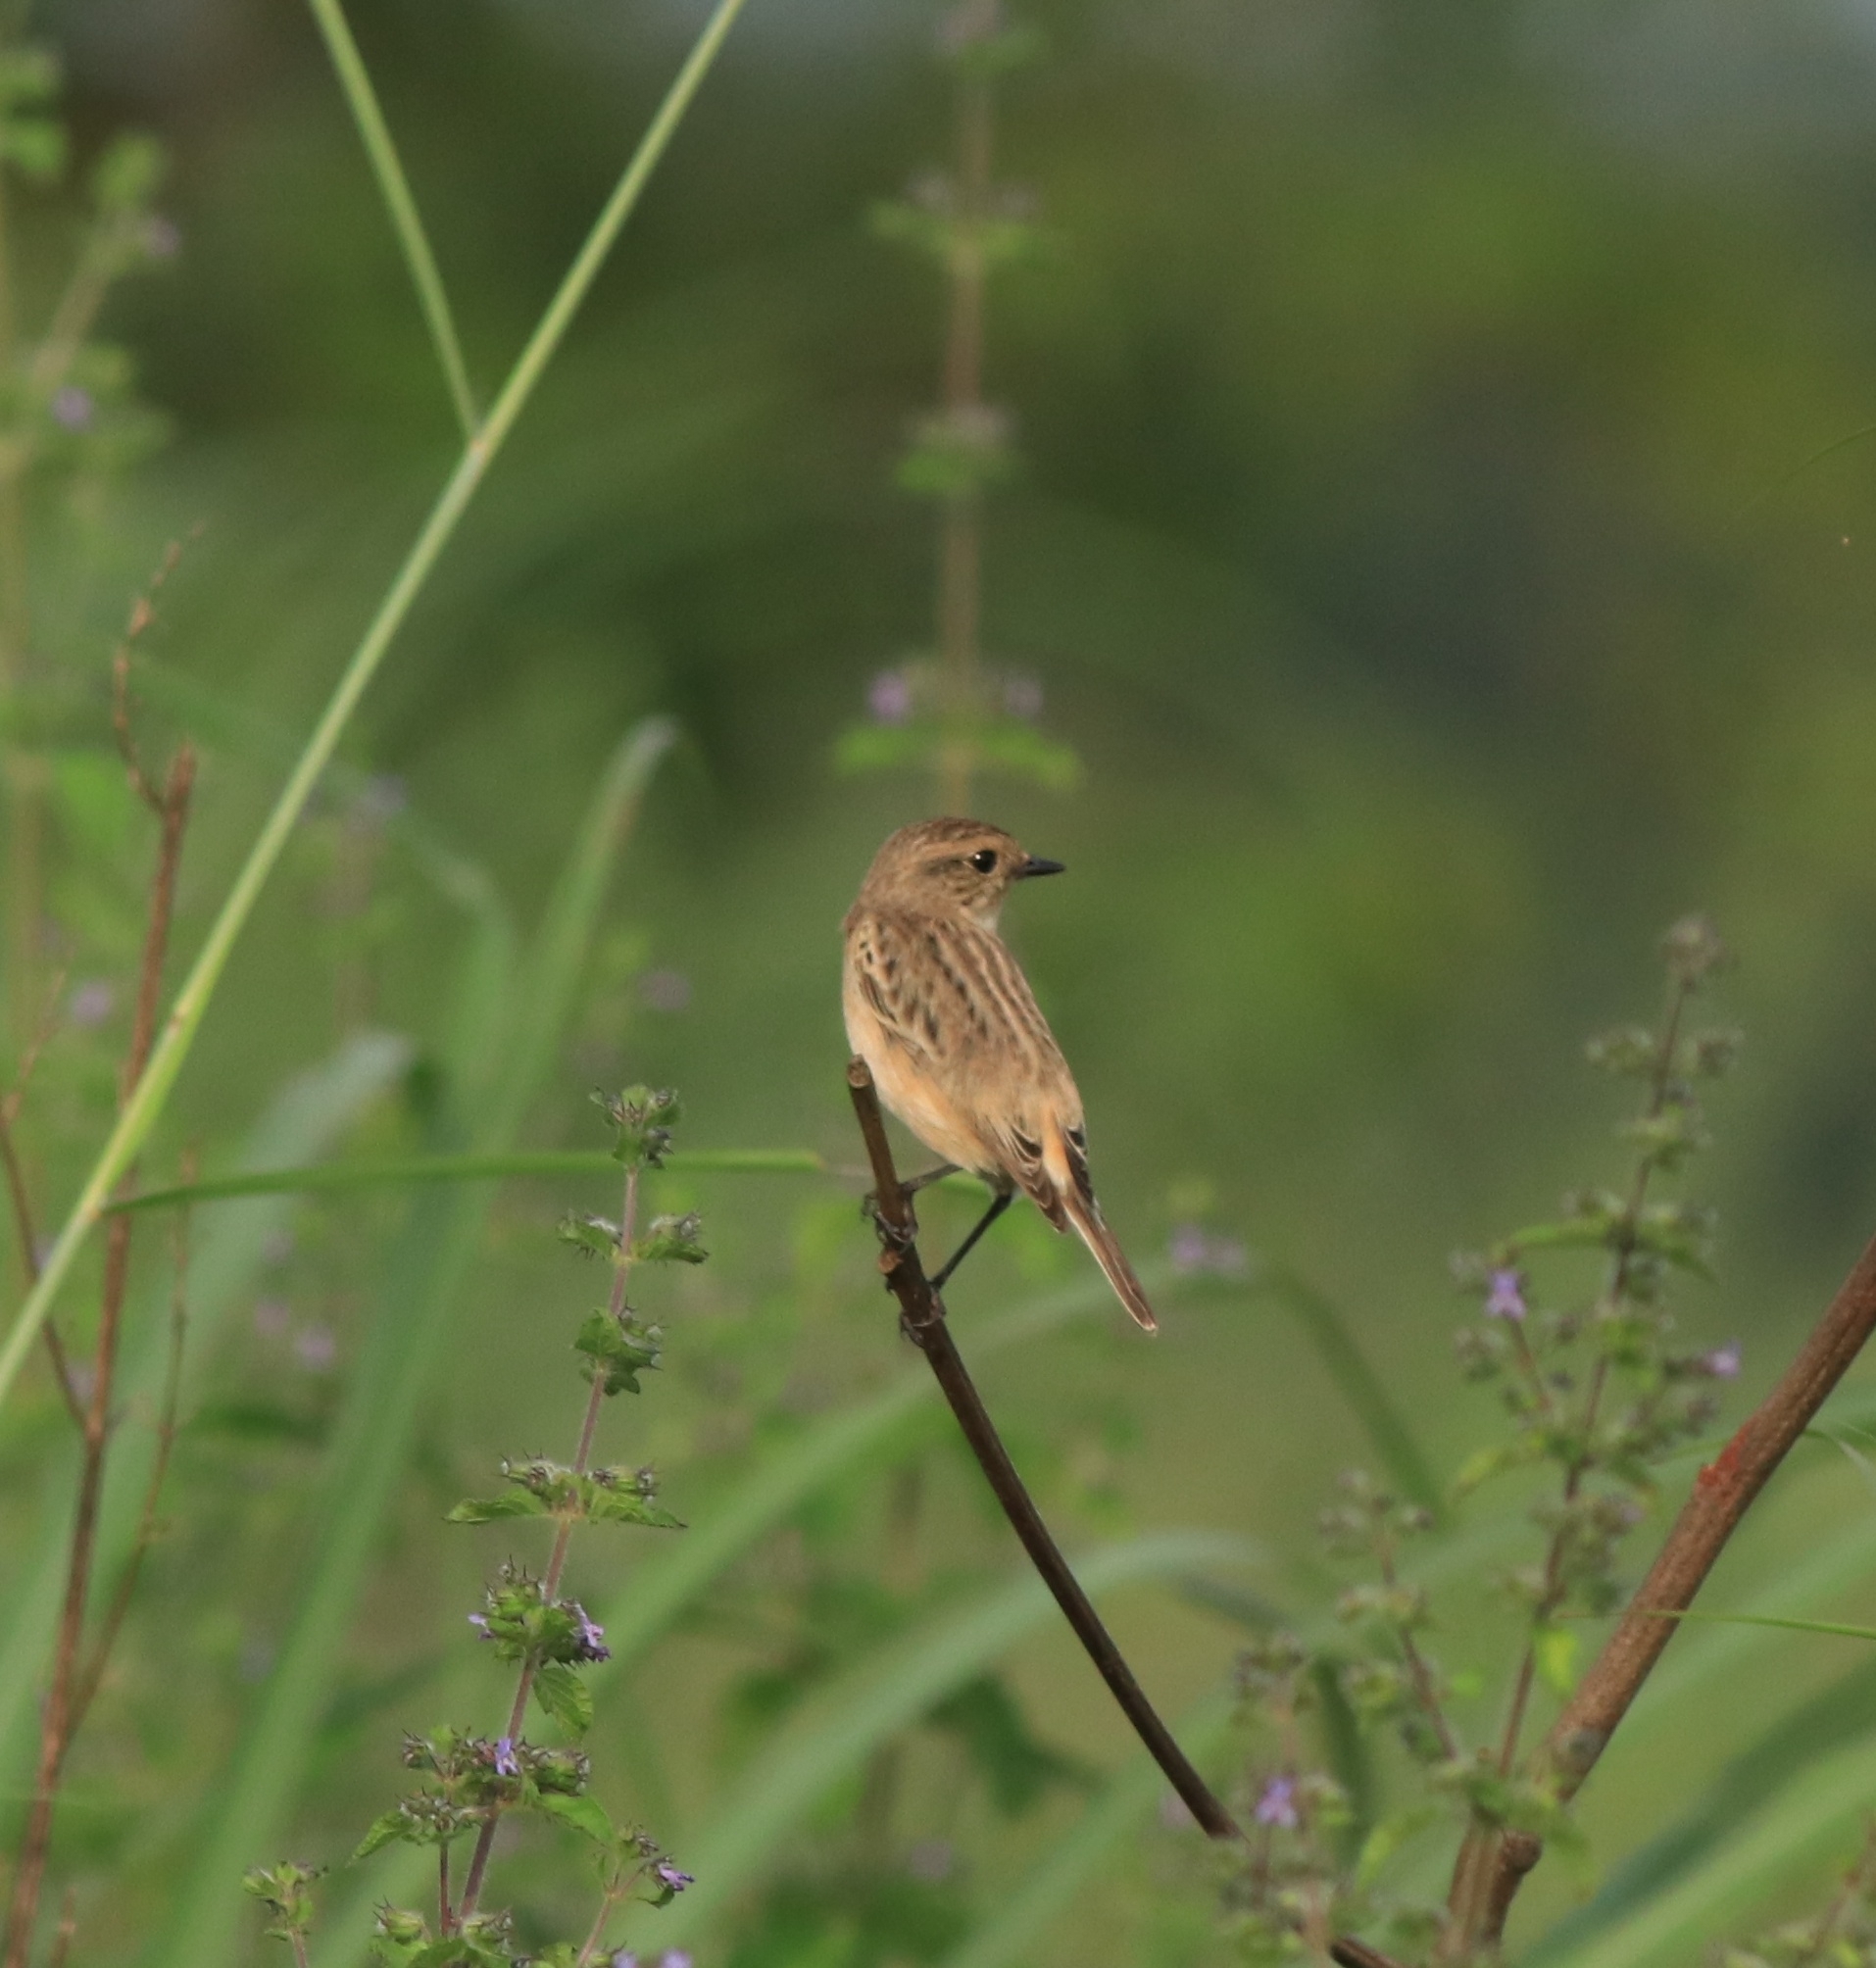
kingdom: Animalia
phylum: Chordata
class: Aves
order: Passeriformes
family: Muscicapidae
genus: Saxicola
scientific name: Saxicola maurus
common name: Siberian stonechat
